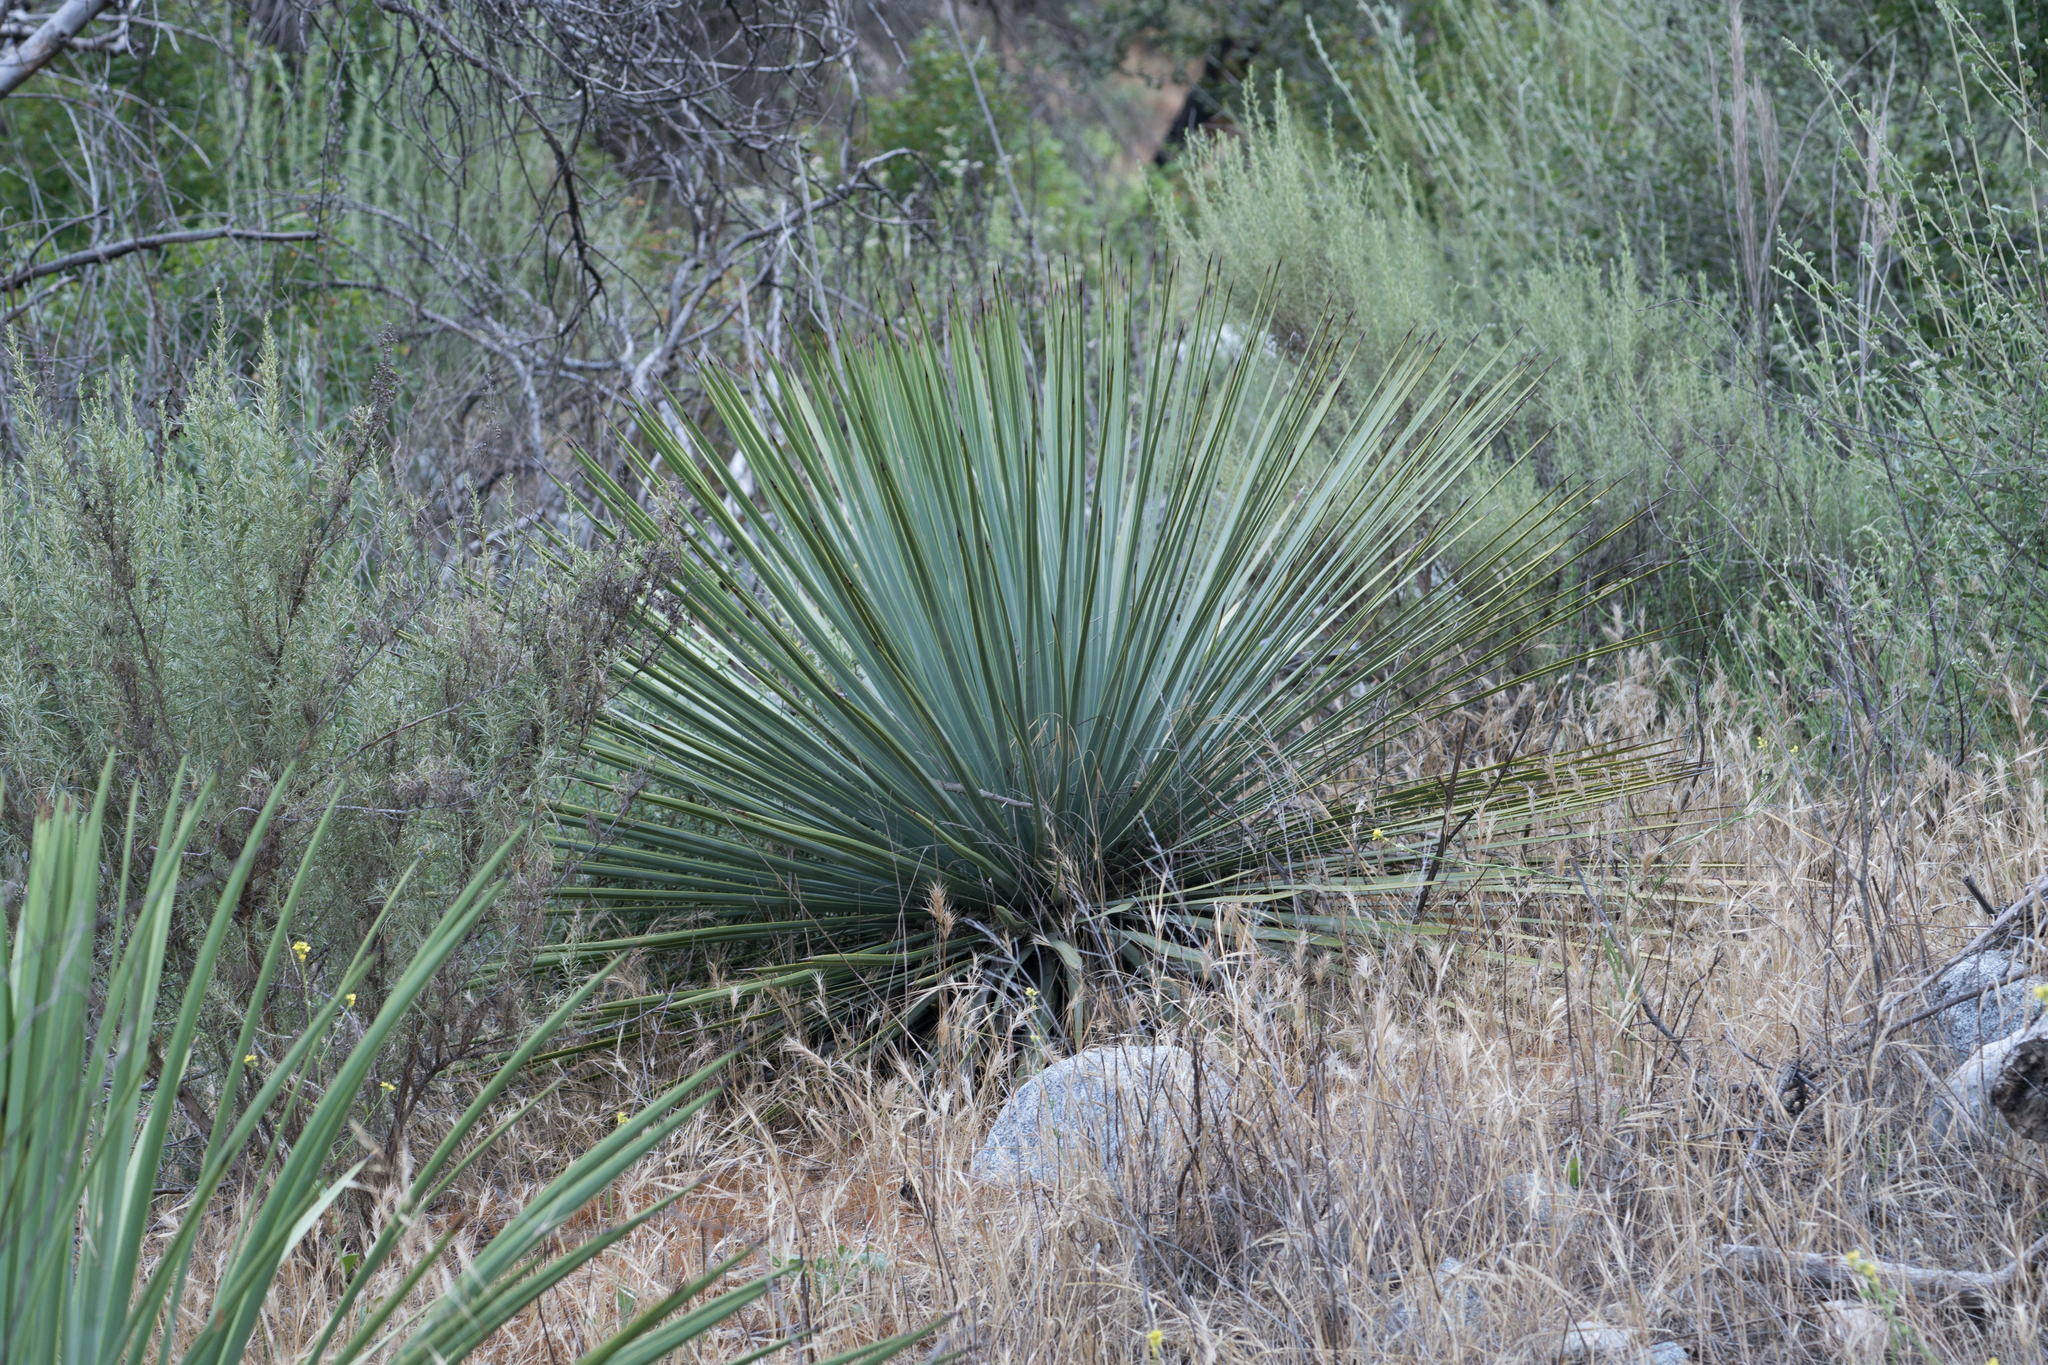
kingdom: Plantae
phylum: Tracheophyta
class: Liliopsida
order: Asparagales
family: Asparagaceae
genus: Hesperoyucca
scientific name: Hesperoyucca whipplei
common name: Our lord's-candle
